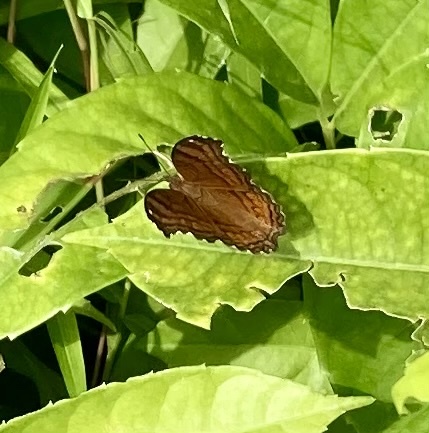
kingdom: Animalia
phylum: Arthropoda
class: Insecta
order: Lepidoptera
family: Nymphalidae
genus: Junonia
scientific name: Junonia hedonia
